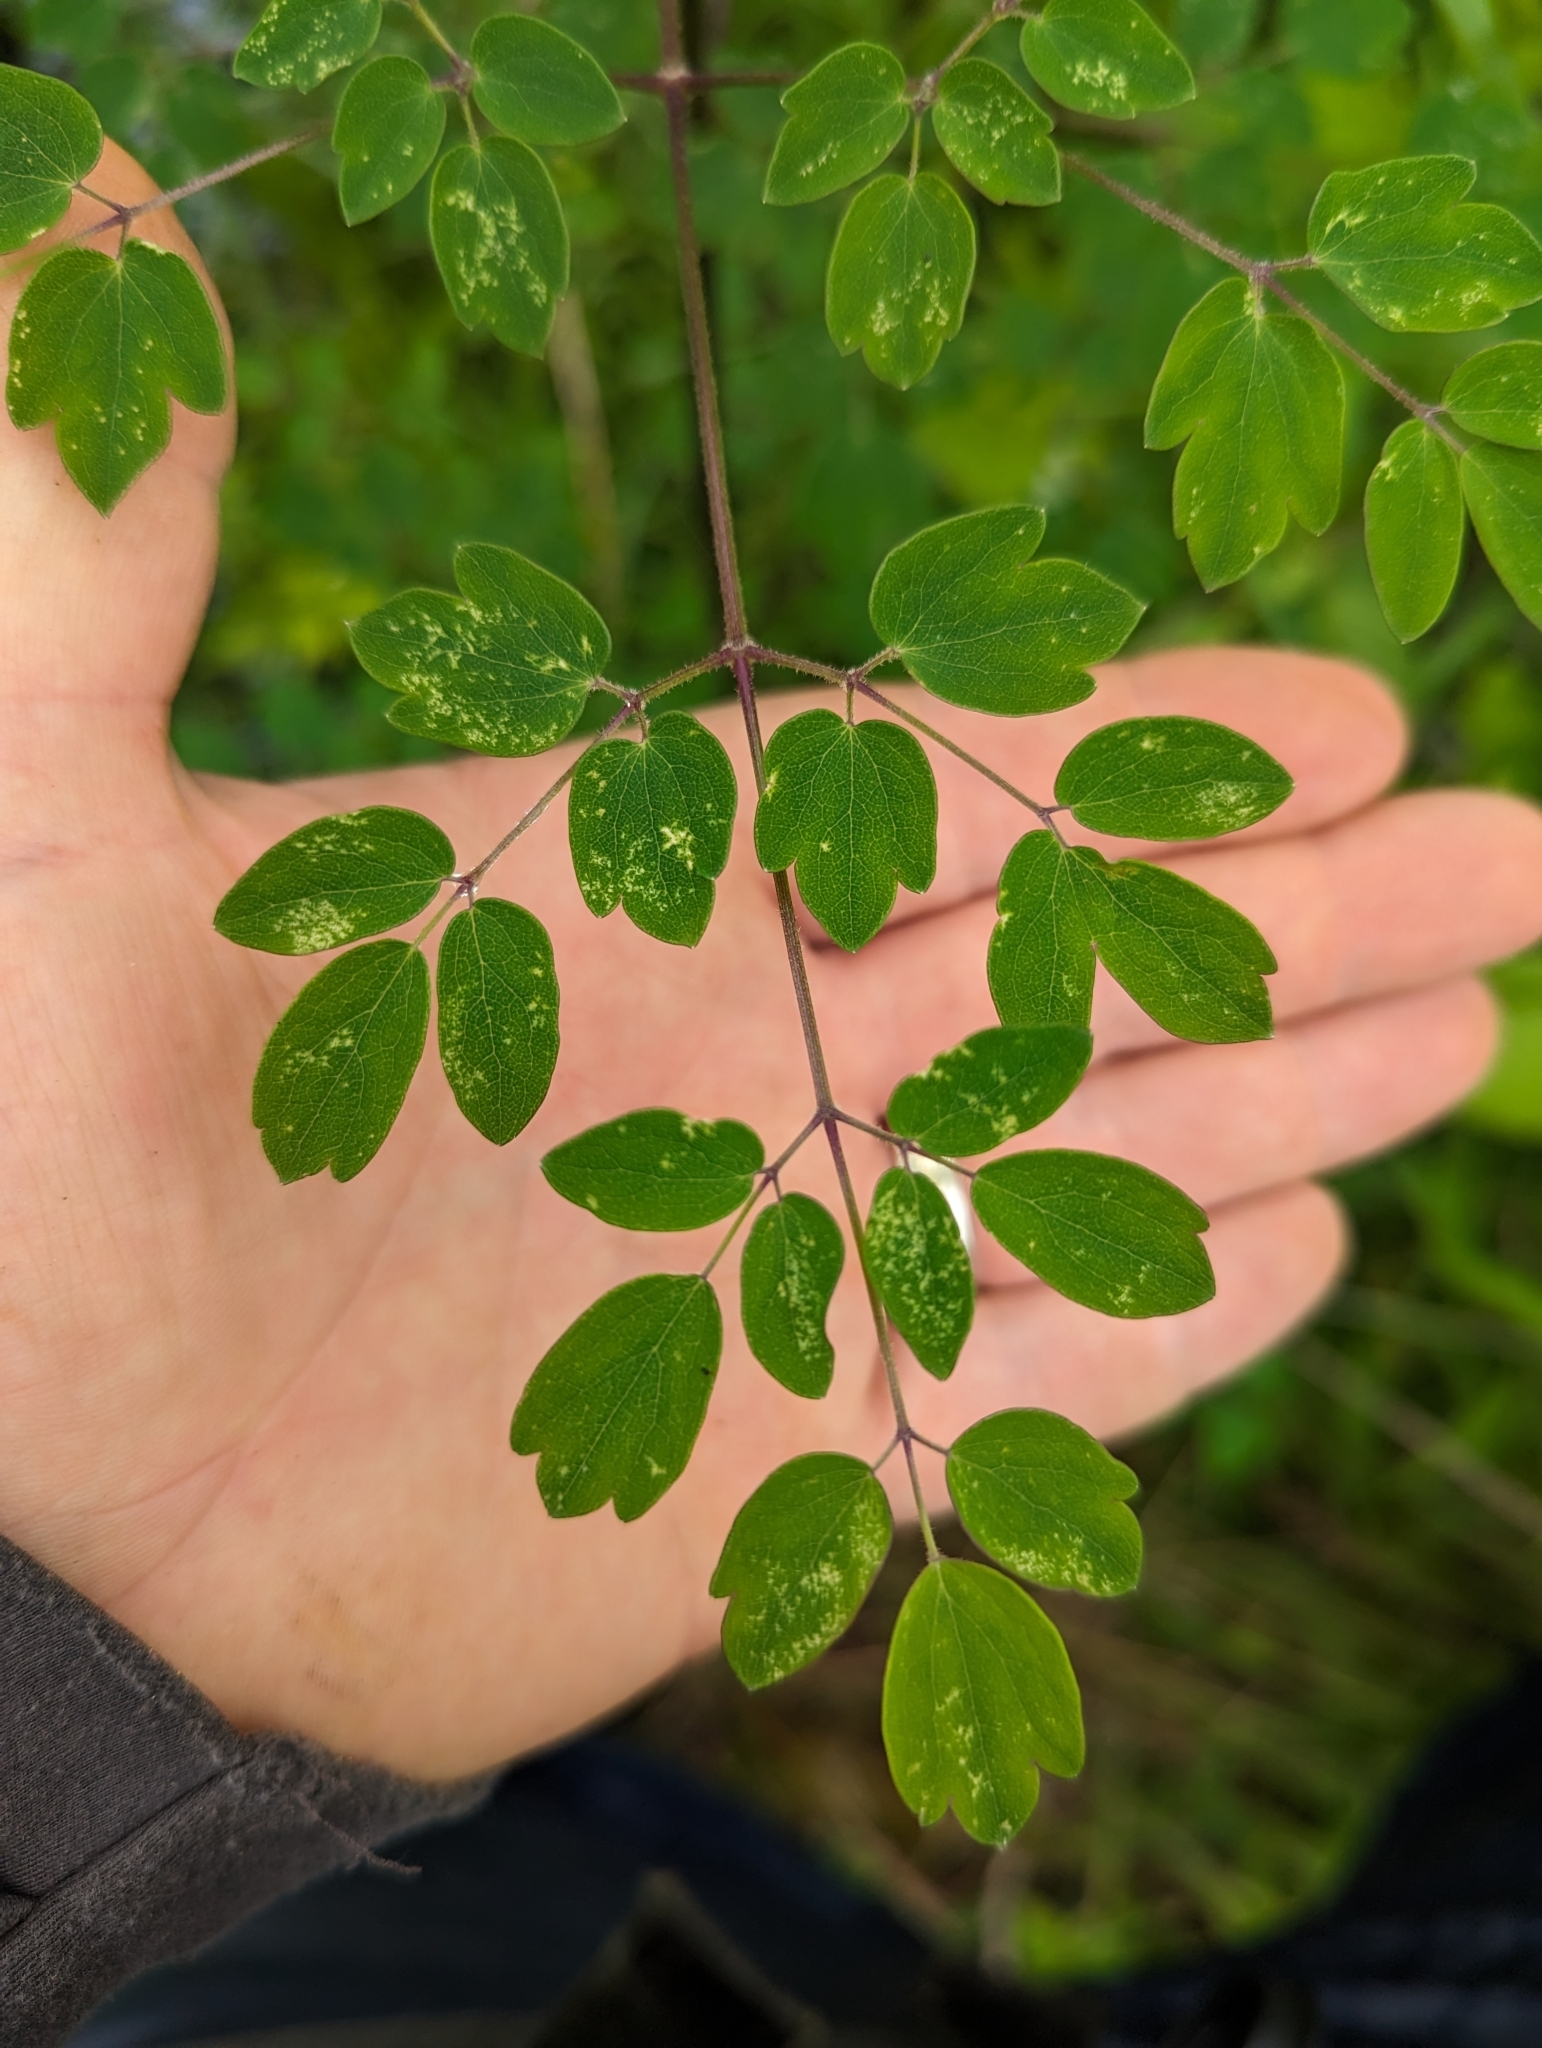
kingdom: Plantae
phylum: Tracheophyta
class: Magnoliopsida
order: Ranunculales
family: Ranunculaceae
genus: Thalictrum
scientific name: Thalictrum pubescens
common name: King-of-the-meadow
